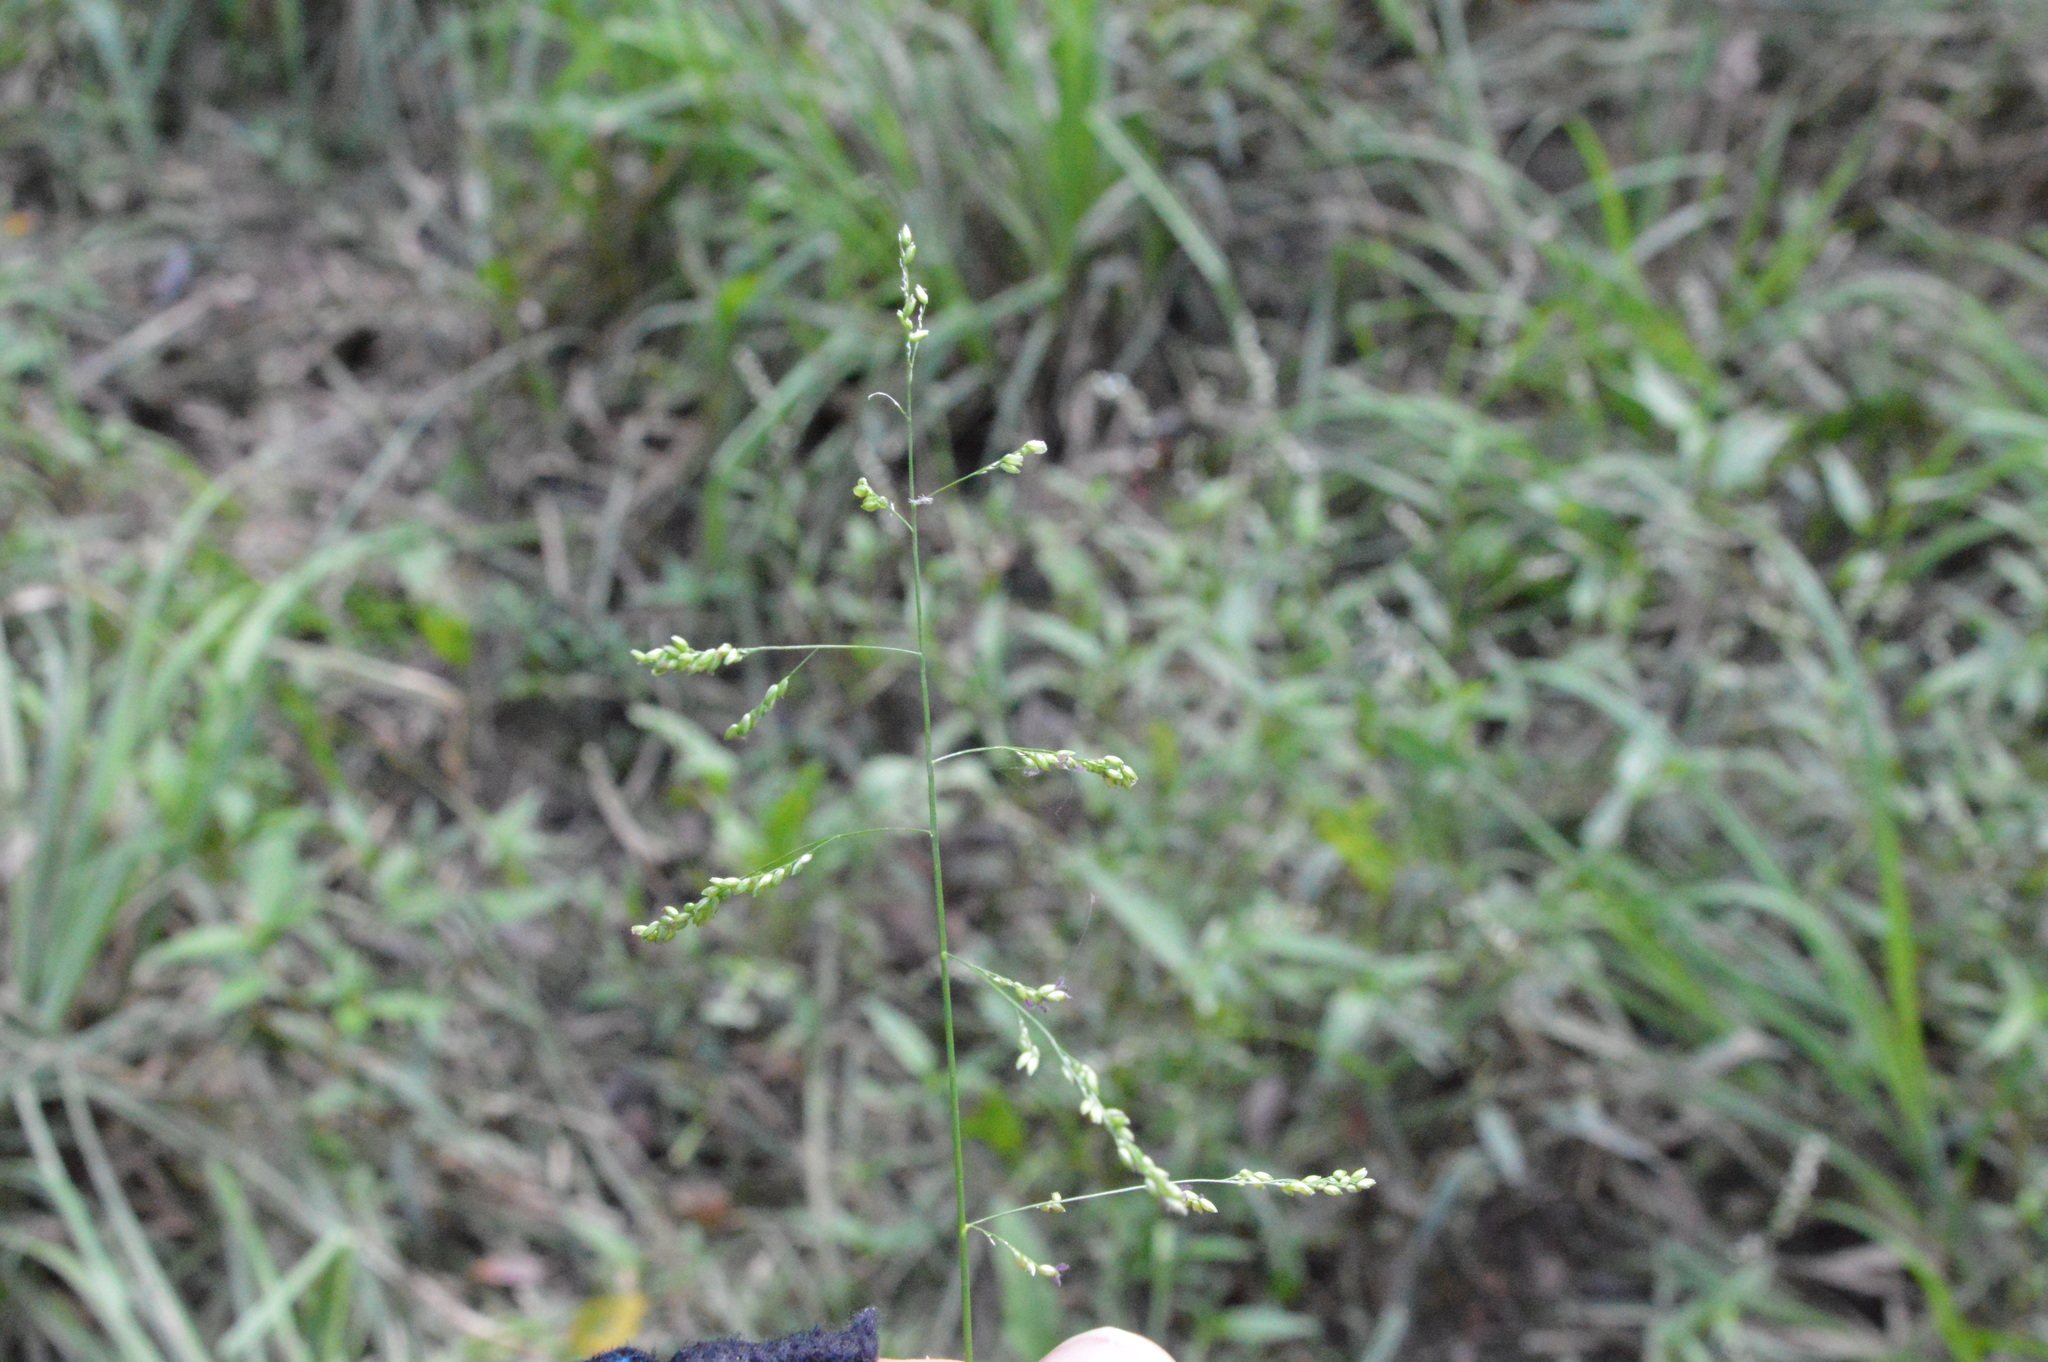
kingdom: Plantae
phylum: Tracheophyta
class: Liliopsida
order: Poales
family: Poaceae
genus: Steinchisma
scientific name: Steinchisma hians
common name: Gaping panic grass
